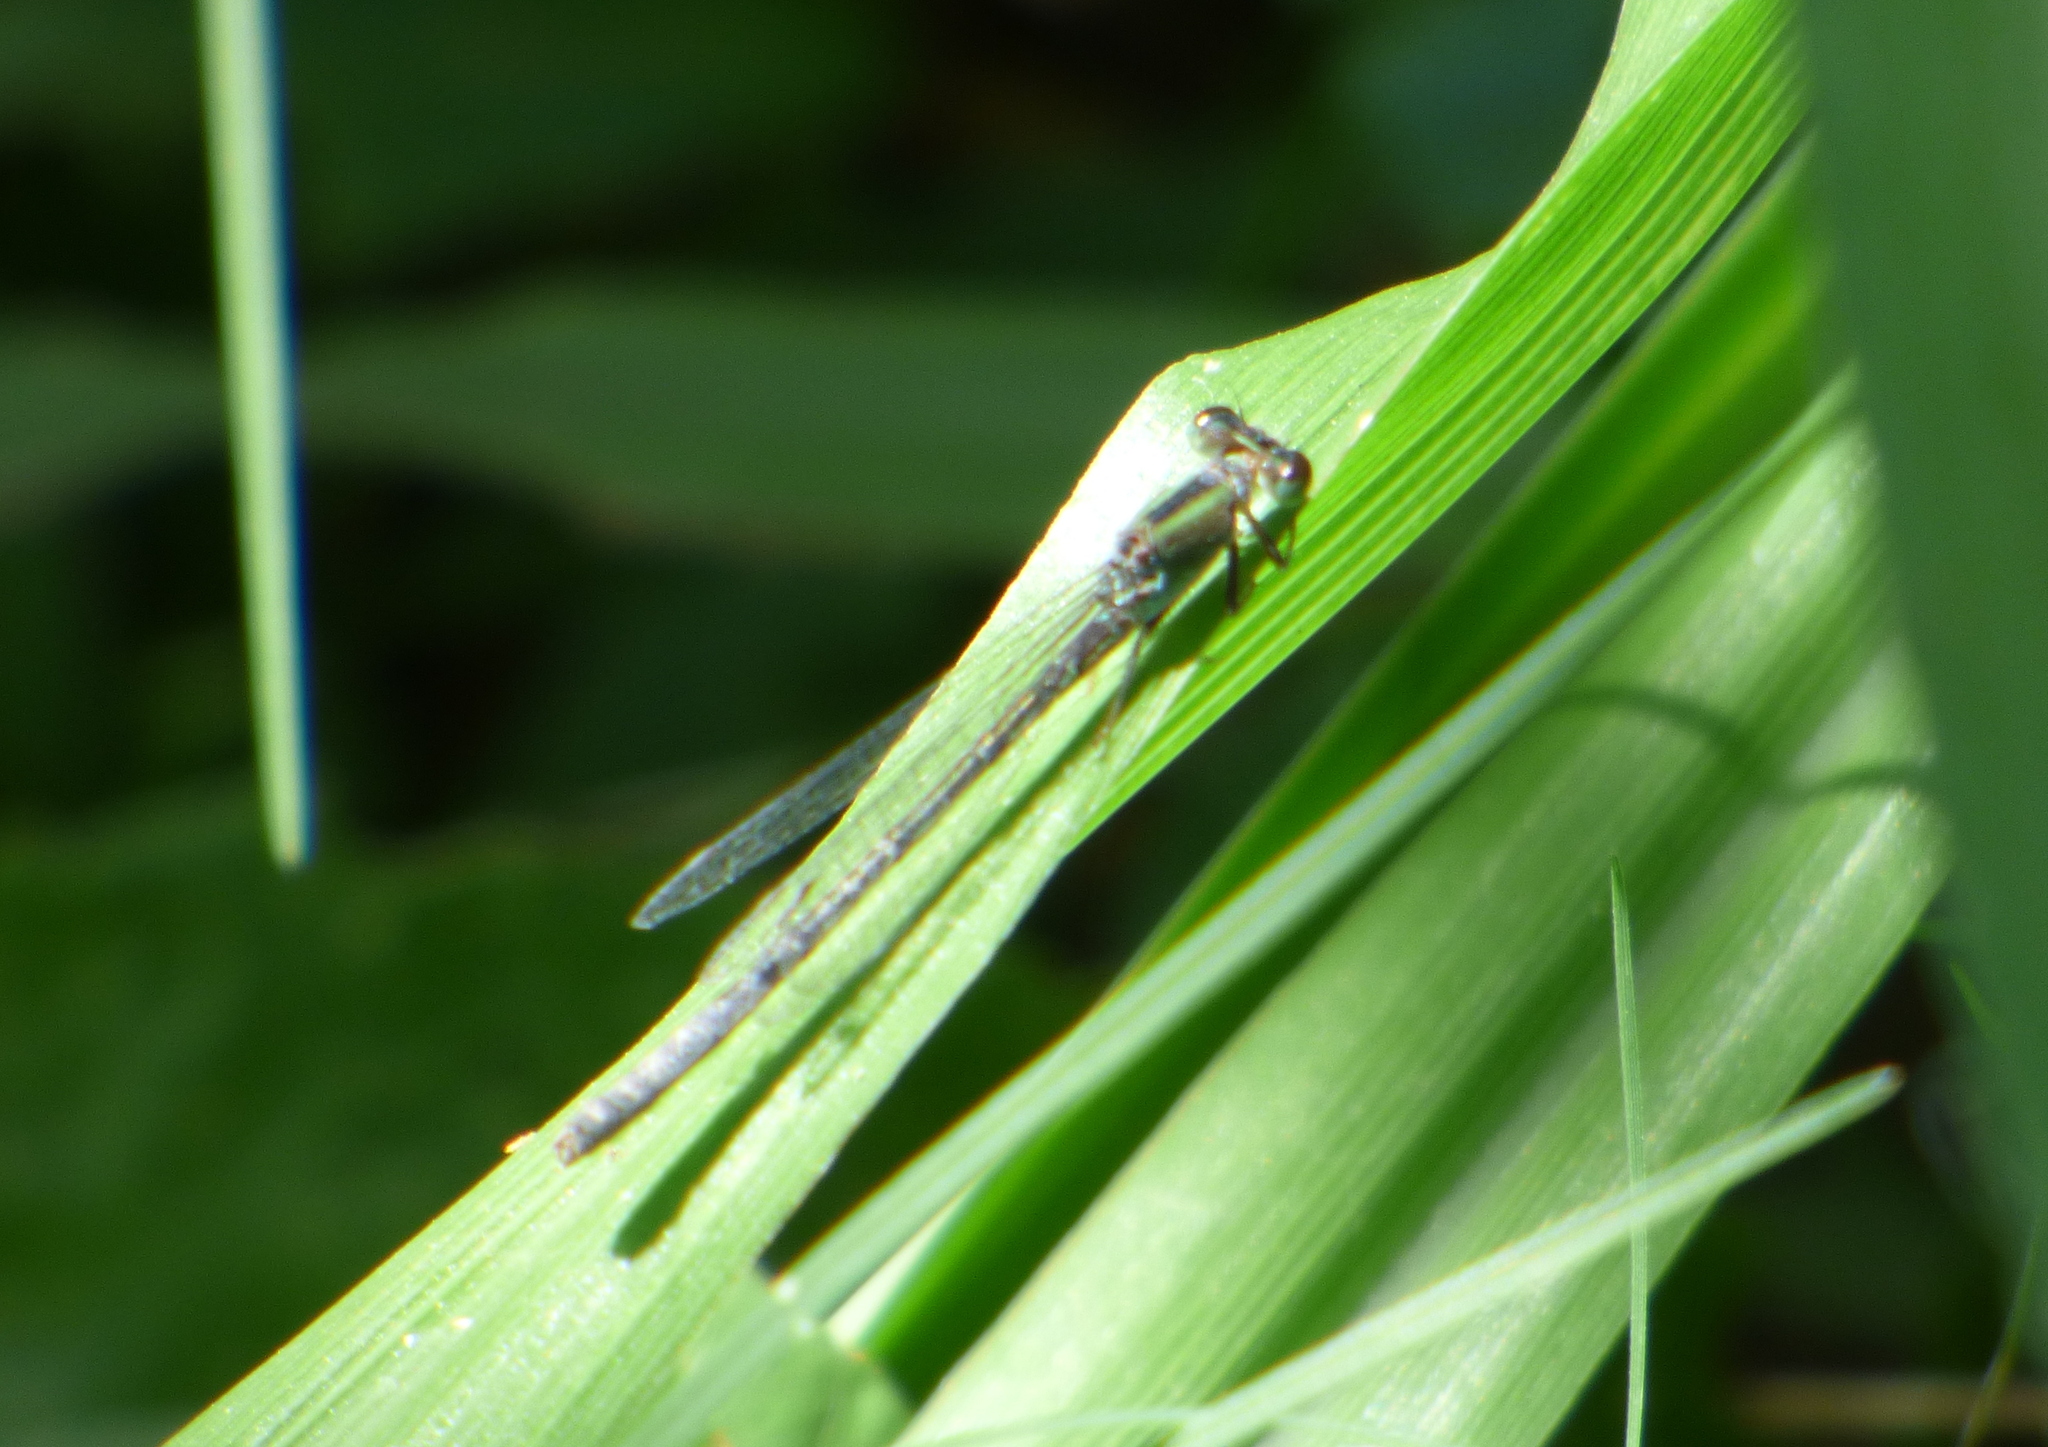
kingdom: Animalia
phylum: Arthropoda
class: Insecta
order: Odonata
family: Coenagrionidae
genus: Ischnura
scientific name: Ischnura fluviatilis
